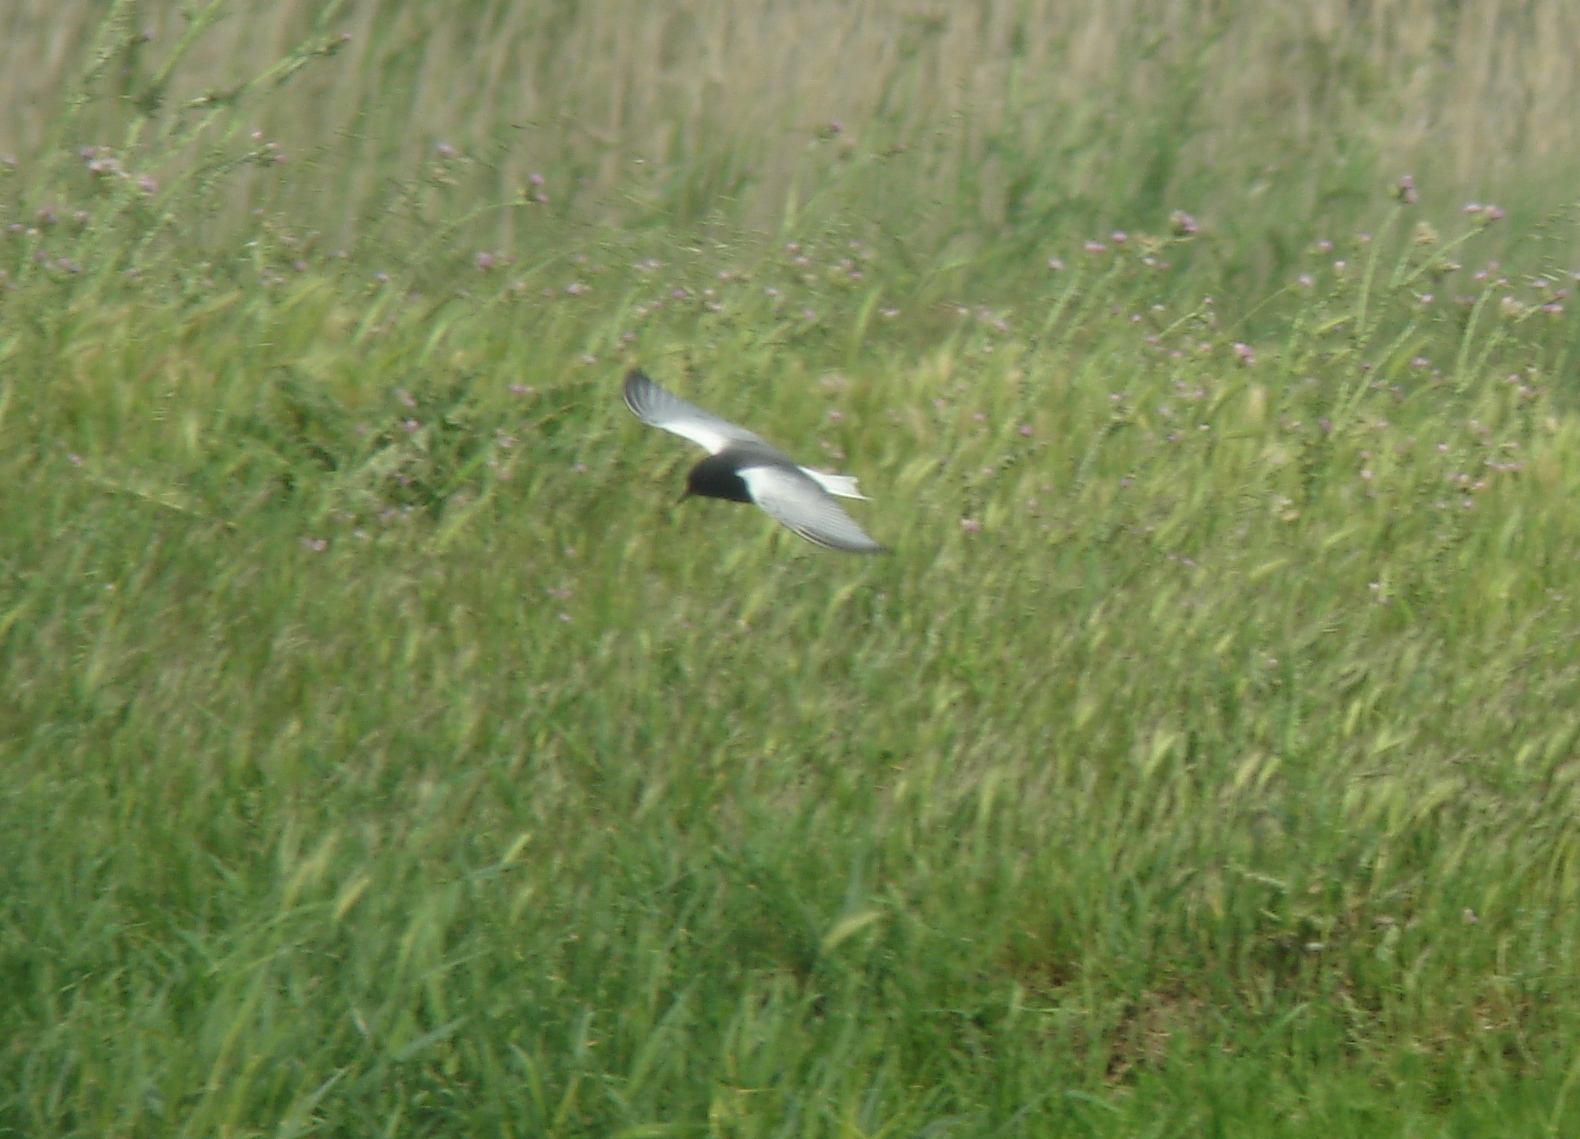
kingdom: Animalia
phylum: Chordata
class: Aves
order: Charadriiformes
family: Laridae
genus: Chlidonias
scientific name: Chlidonias leucopterus
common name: White-winged tern
